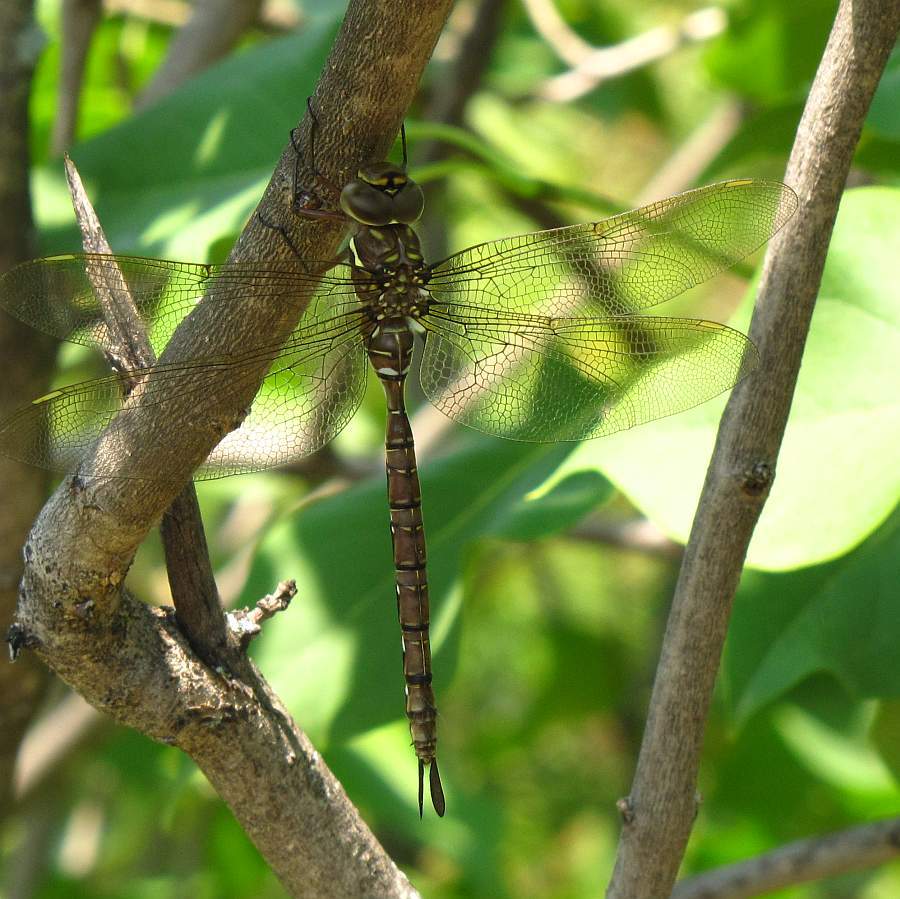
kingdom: Animalia
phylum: Arthropoda
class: Insecta
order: Odonata
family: Aeshnidae
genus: Aeshna
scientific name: Aeshna umbrosa
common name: Shadow darner
